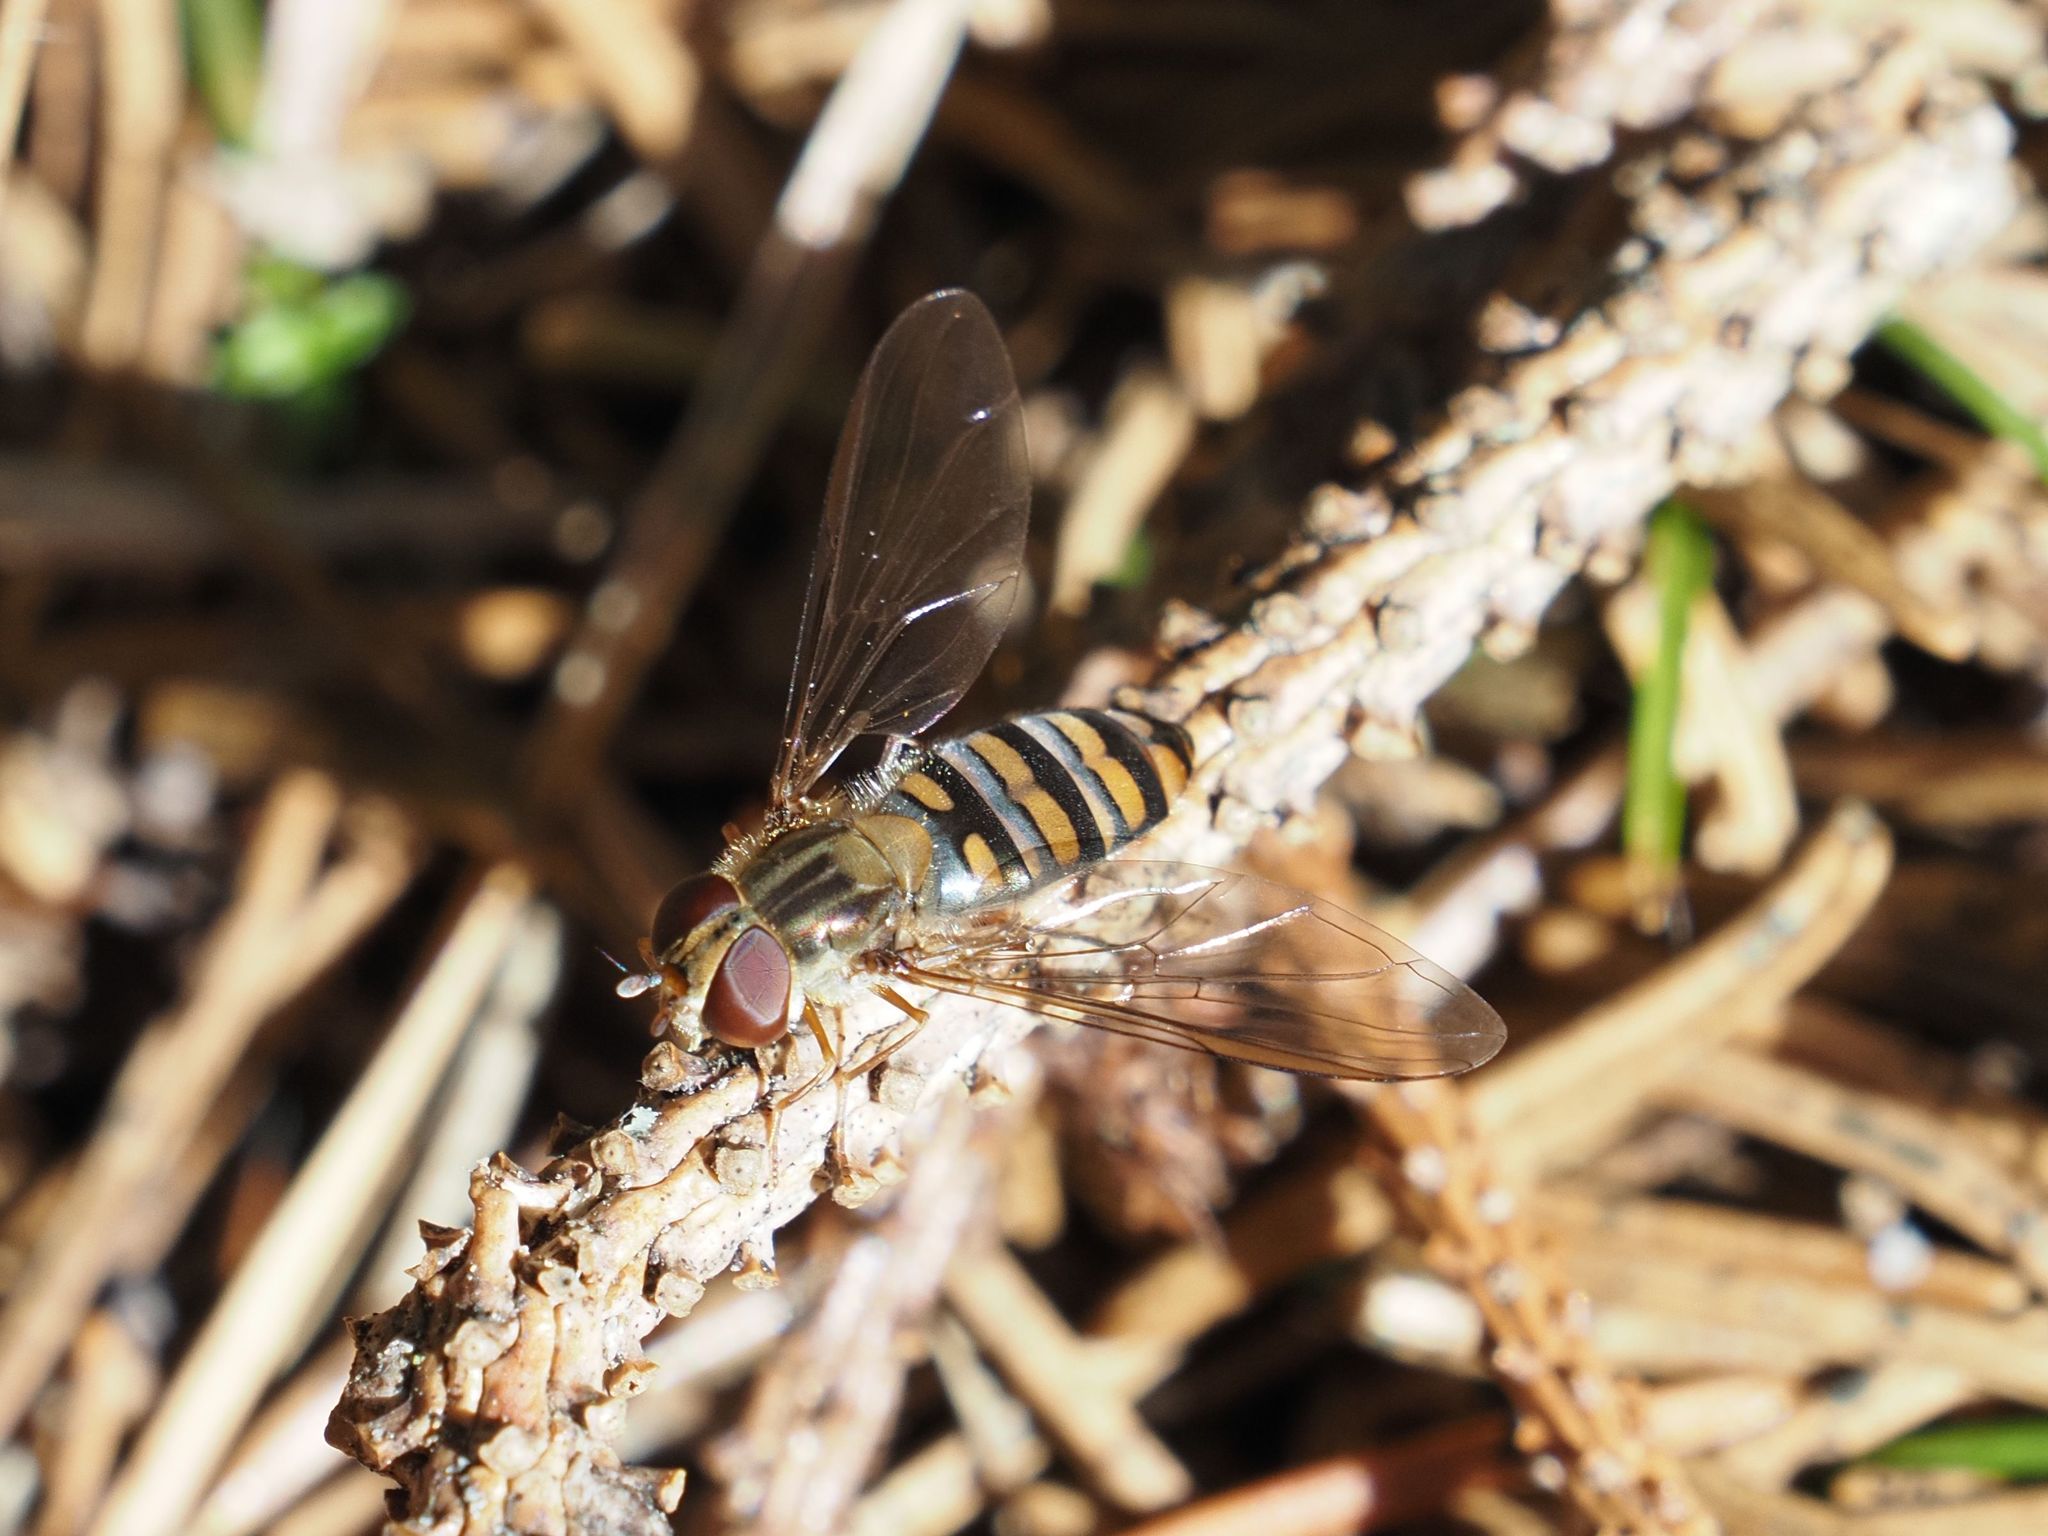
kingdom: Animalia
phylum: Arthropoda
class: Insecta
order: Diptera
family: Syrphidae
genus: Episyrphus
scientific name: Episyrphus balteatus
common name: Marmalade hoverfly
